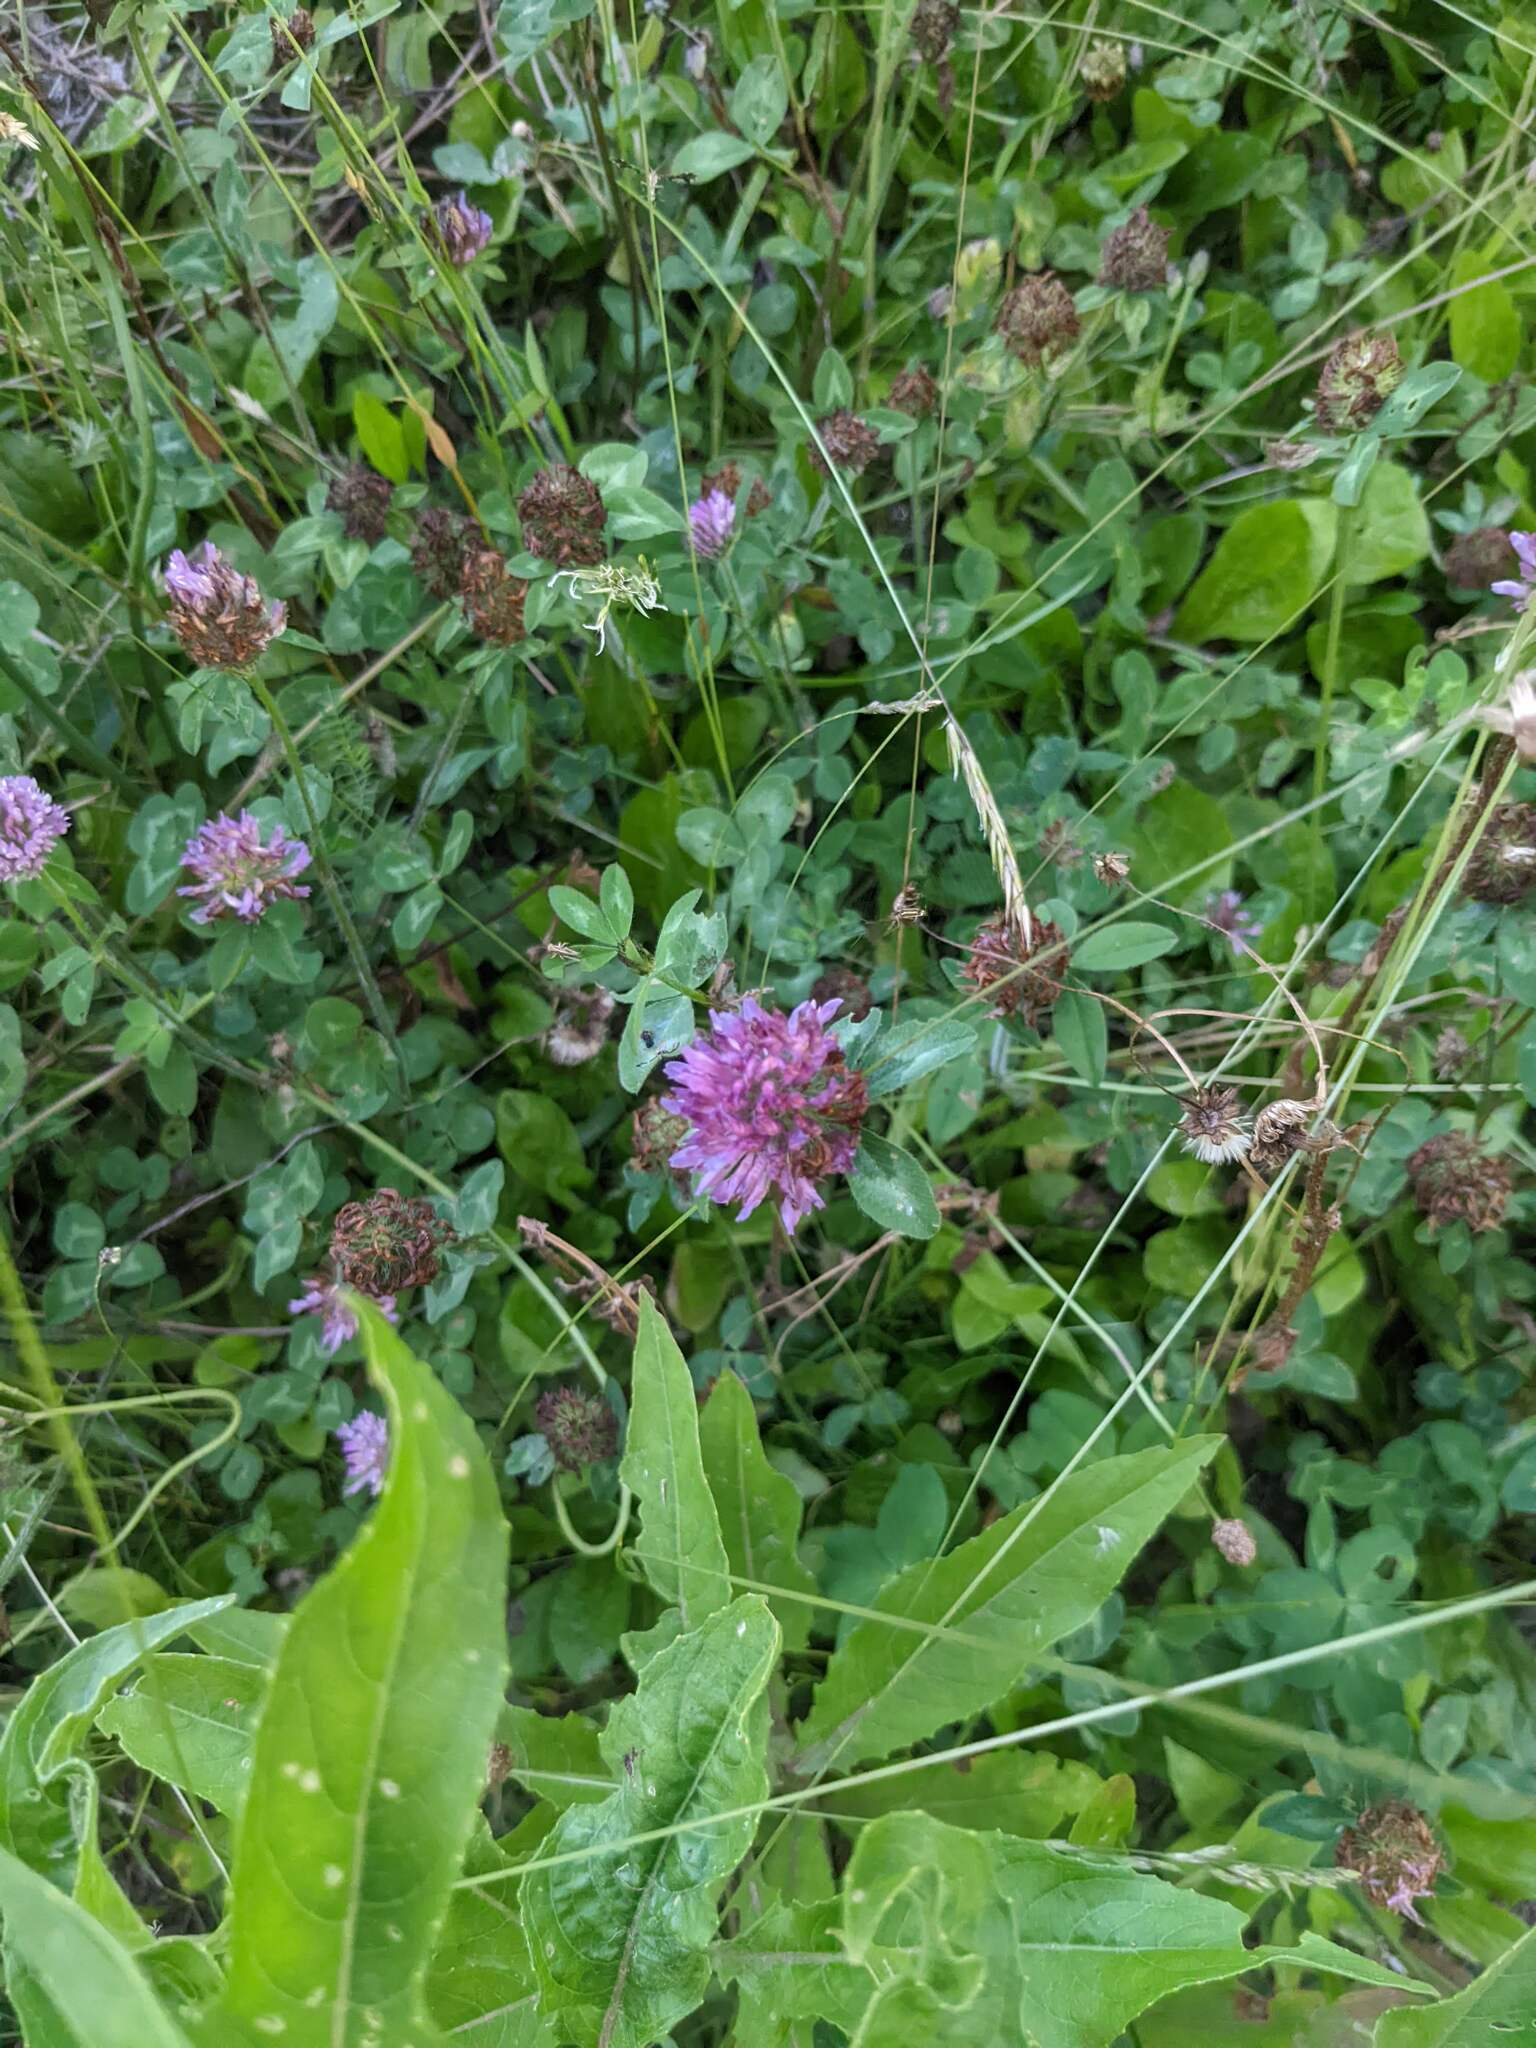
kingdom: Plantae
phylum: Tracheophyta
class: Magnoliopsida
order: Fabales
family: Fabaceae
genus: Trifolium
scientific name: Trifolium pratense
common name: Red clover
